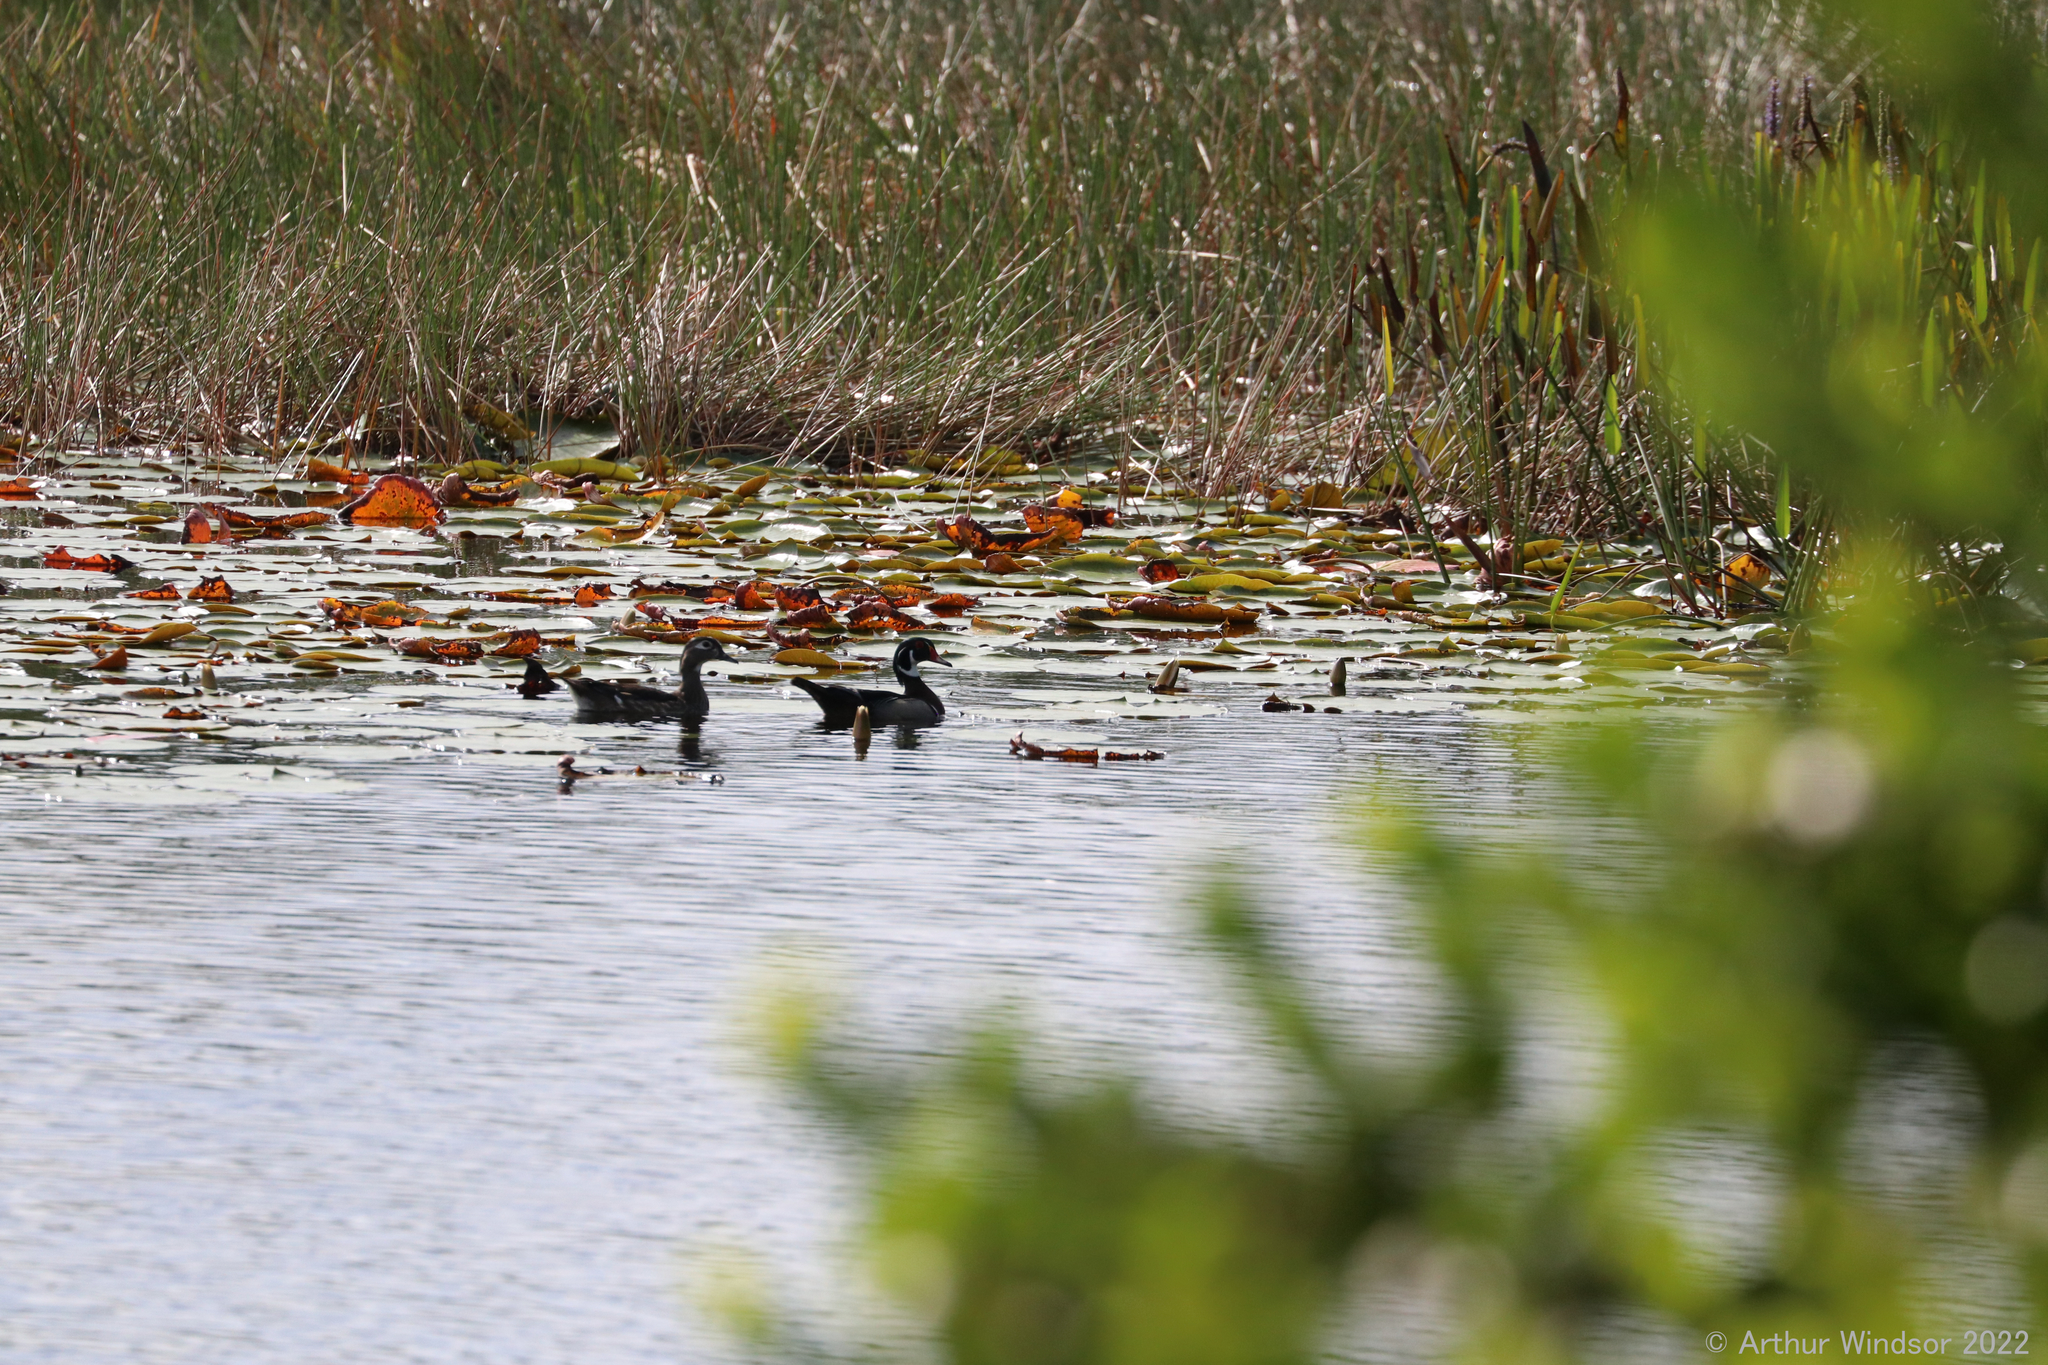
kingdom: Animalia
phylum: Chordata
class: Aves
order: Anseriformes
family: Anatidae
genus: Aix
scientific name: Aix sponsa
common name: Wood duck
